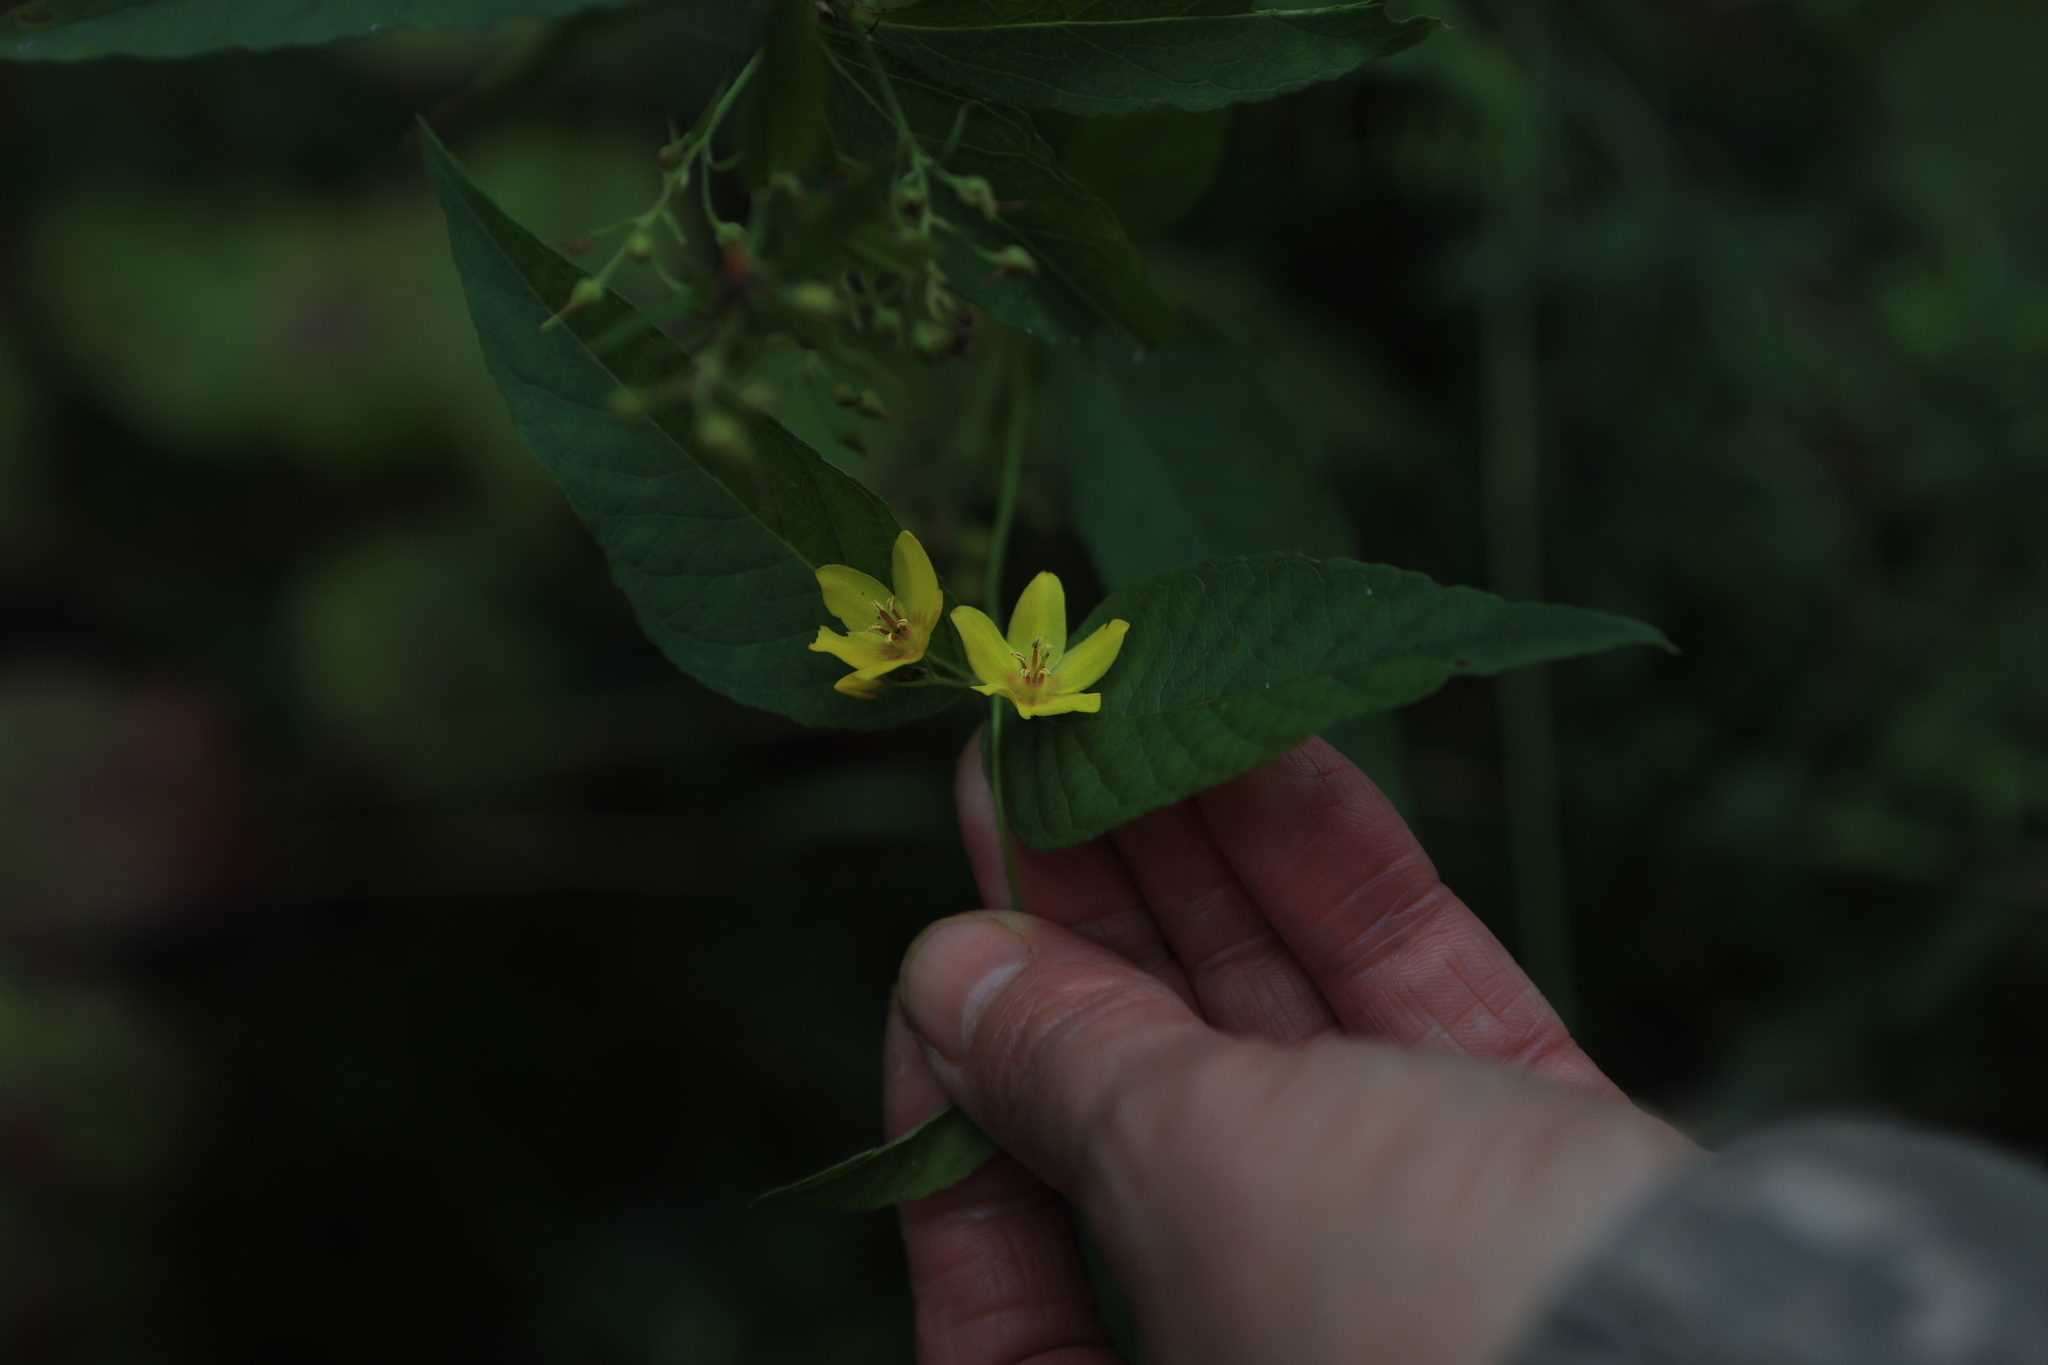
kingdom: Plantae
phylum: Tracheophyta
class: Magnoliopsida
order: Ericales
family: Primulaceae
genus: Lysimachia
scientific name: Lysimachia vulgaris
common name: Yellow loosestrife
